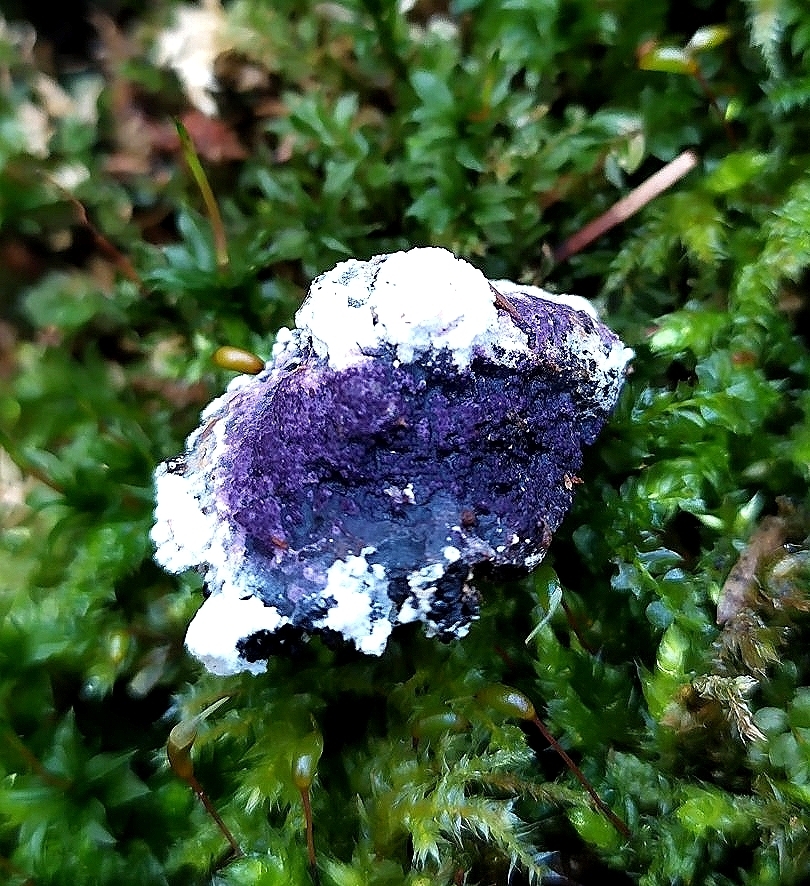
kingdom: Fungi
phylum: Ascomycota
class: Sordariomycetes
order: Hypocreales
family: Bionectriaceae
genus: Nectriopsis
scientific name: Nectriopsis violacea
